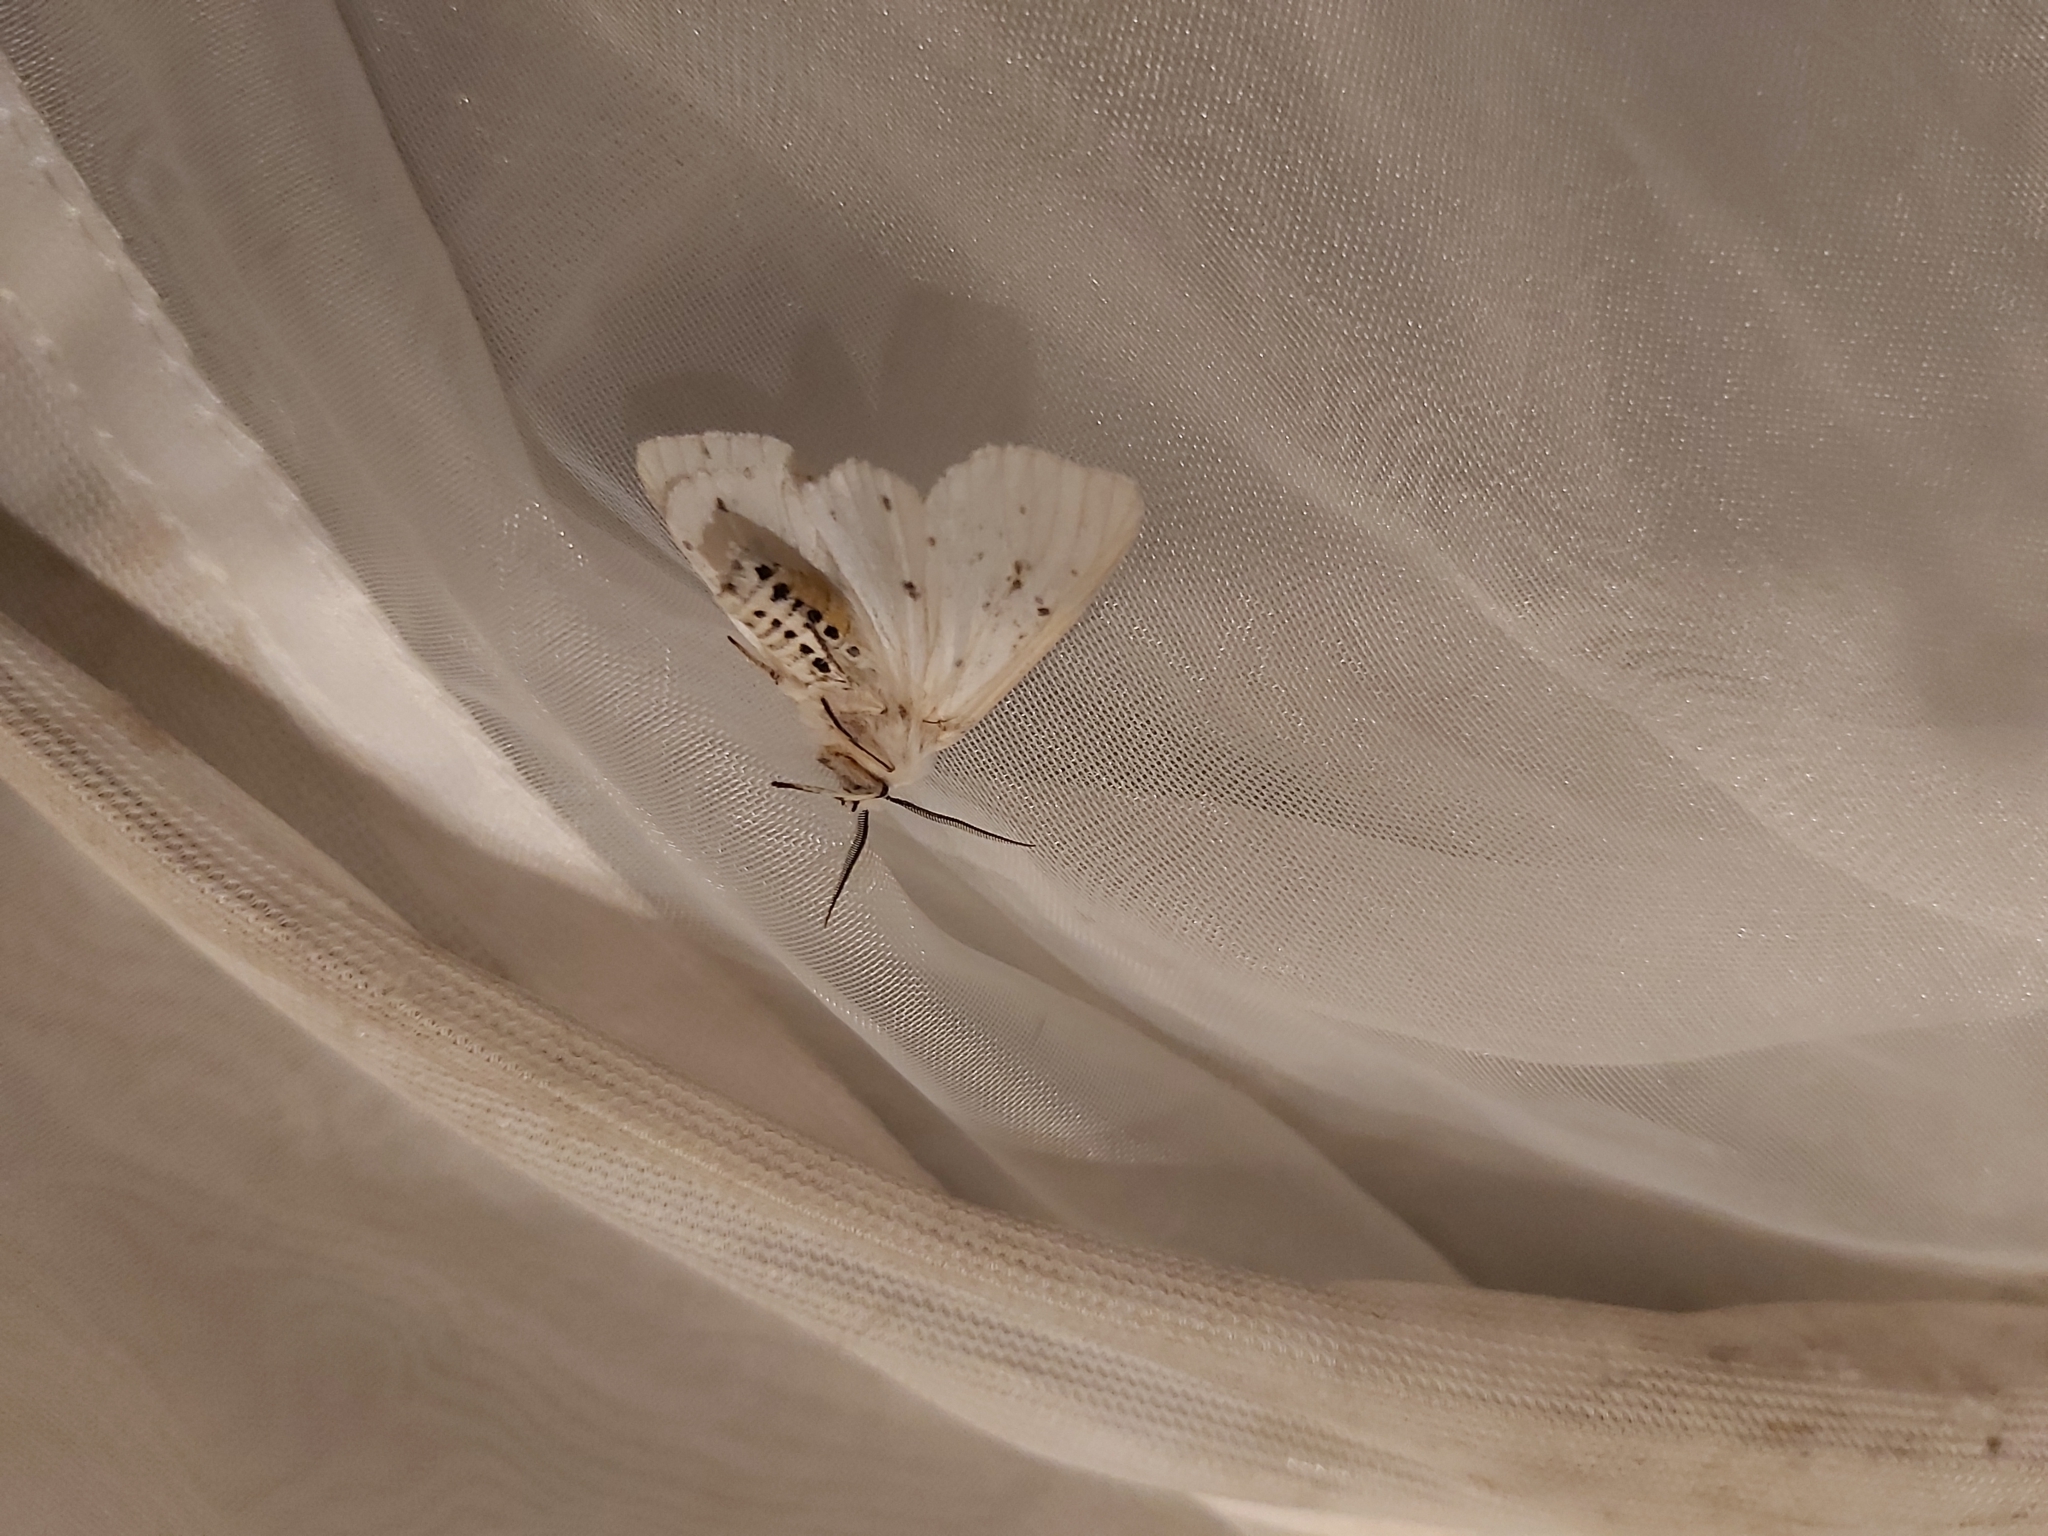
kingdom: Animalia
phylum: Arthropoda
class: Insecta
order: Lepidoptera
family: Erebidae
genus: Spilosoma
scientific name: Spilosoma lubricipeda
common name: White ermine
